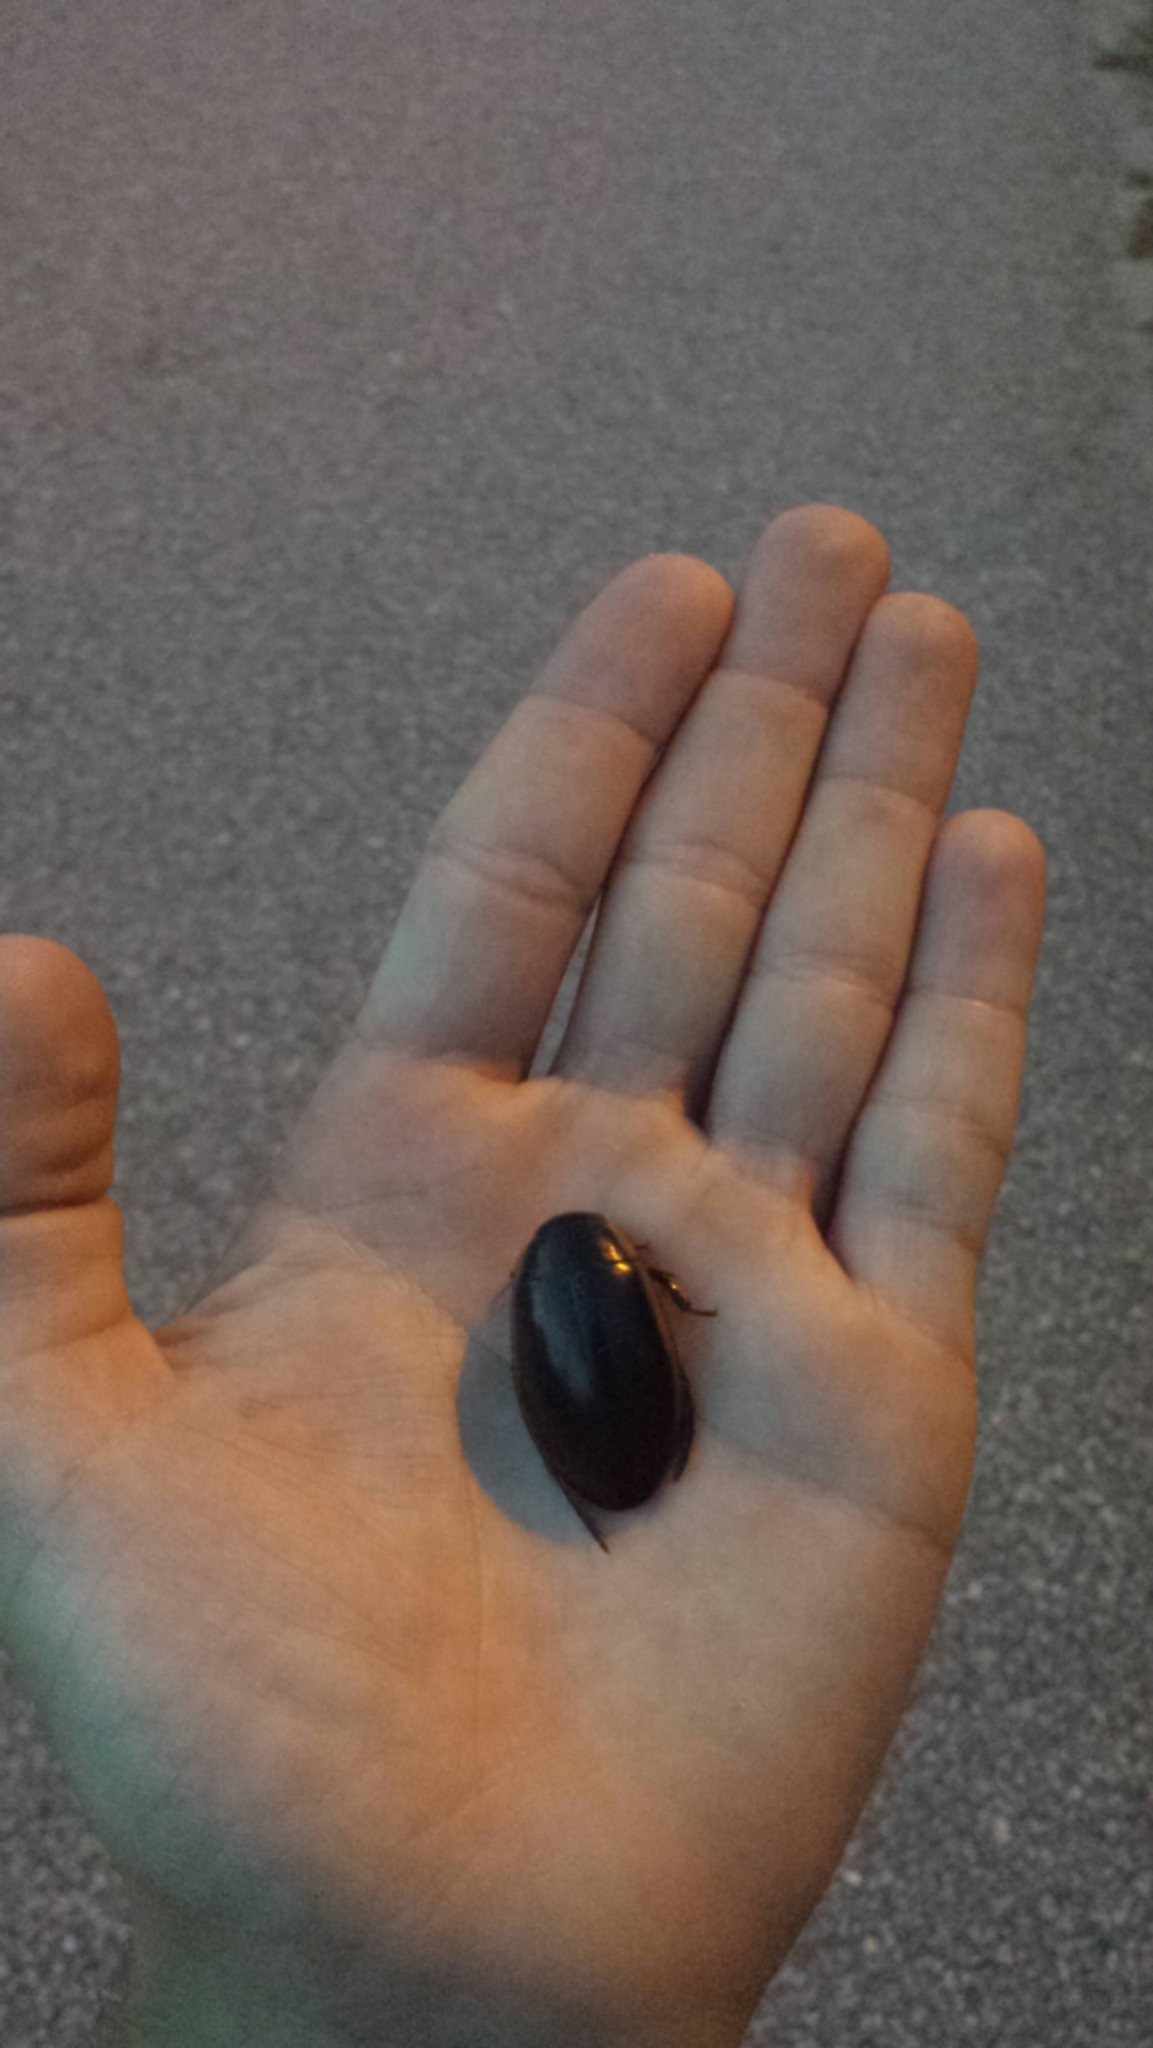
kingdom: Animalia
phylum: Arthropoda
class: Insecta
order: Coleoptera
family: Dytiscidae
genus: Dytiscus
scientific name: Dytiscus
